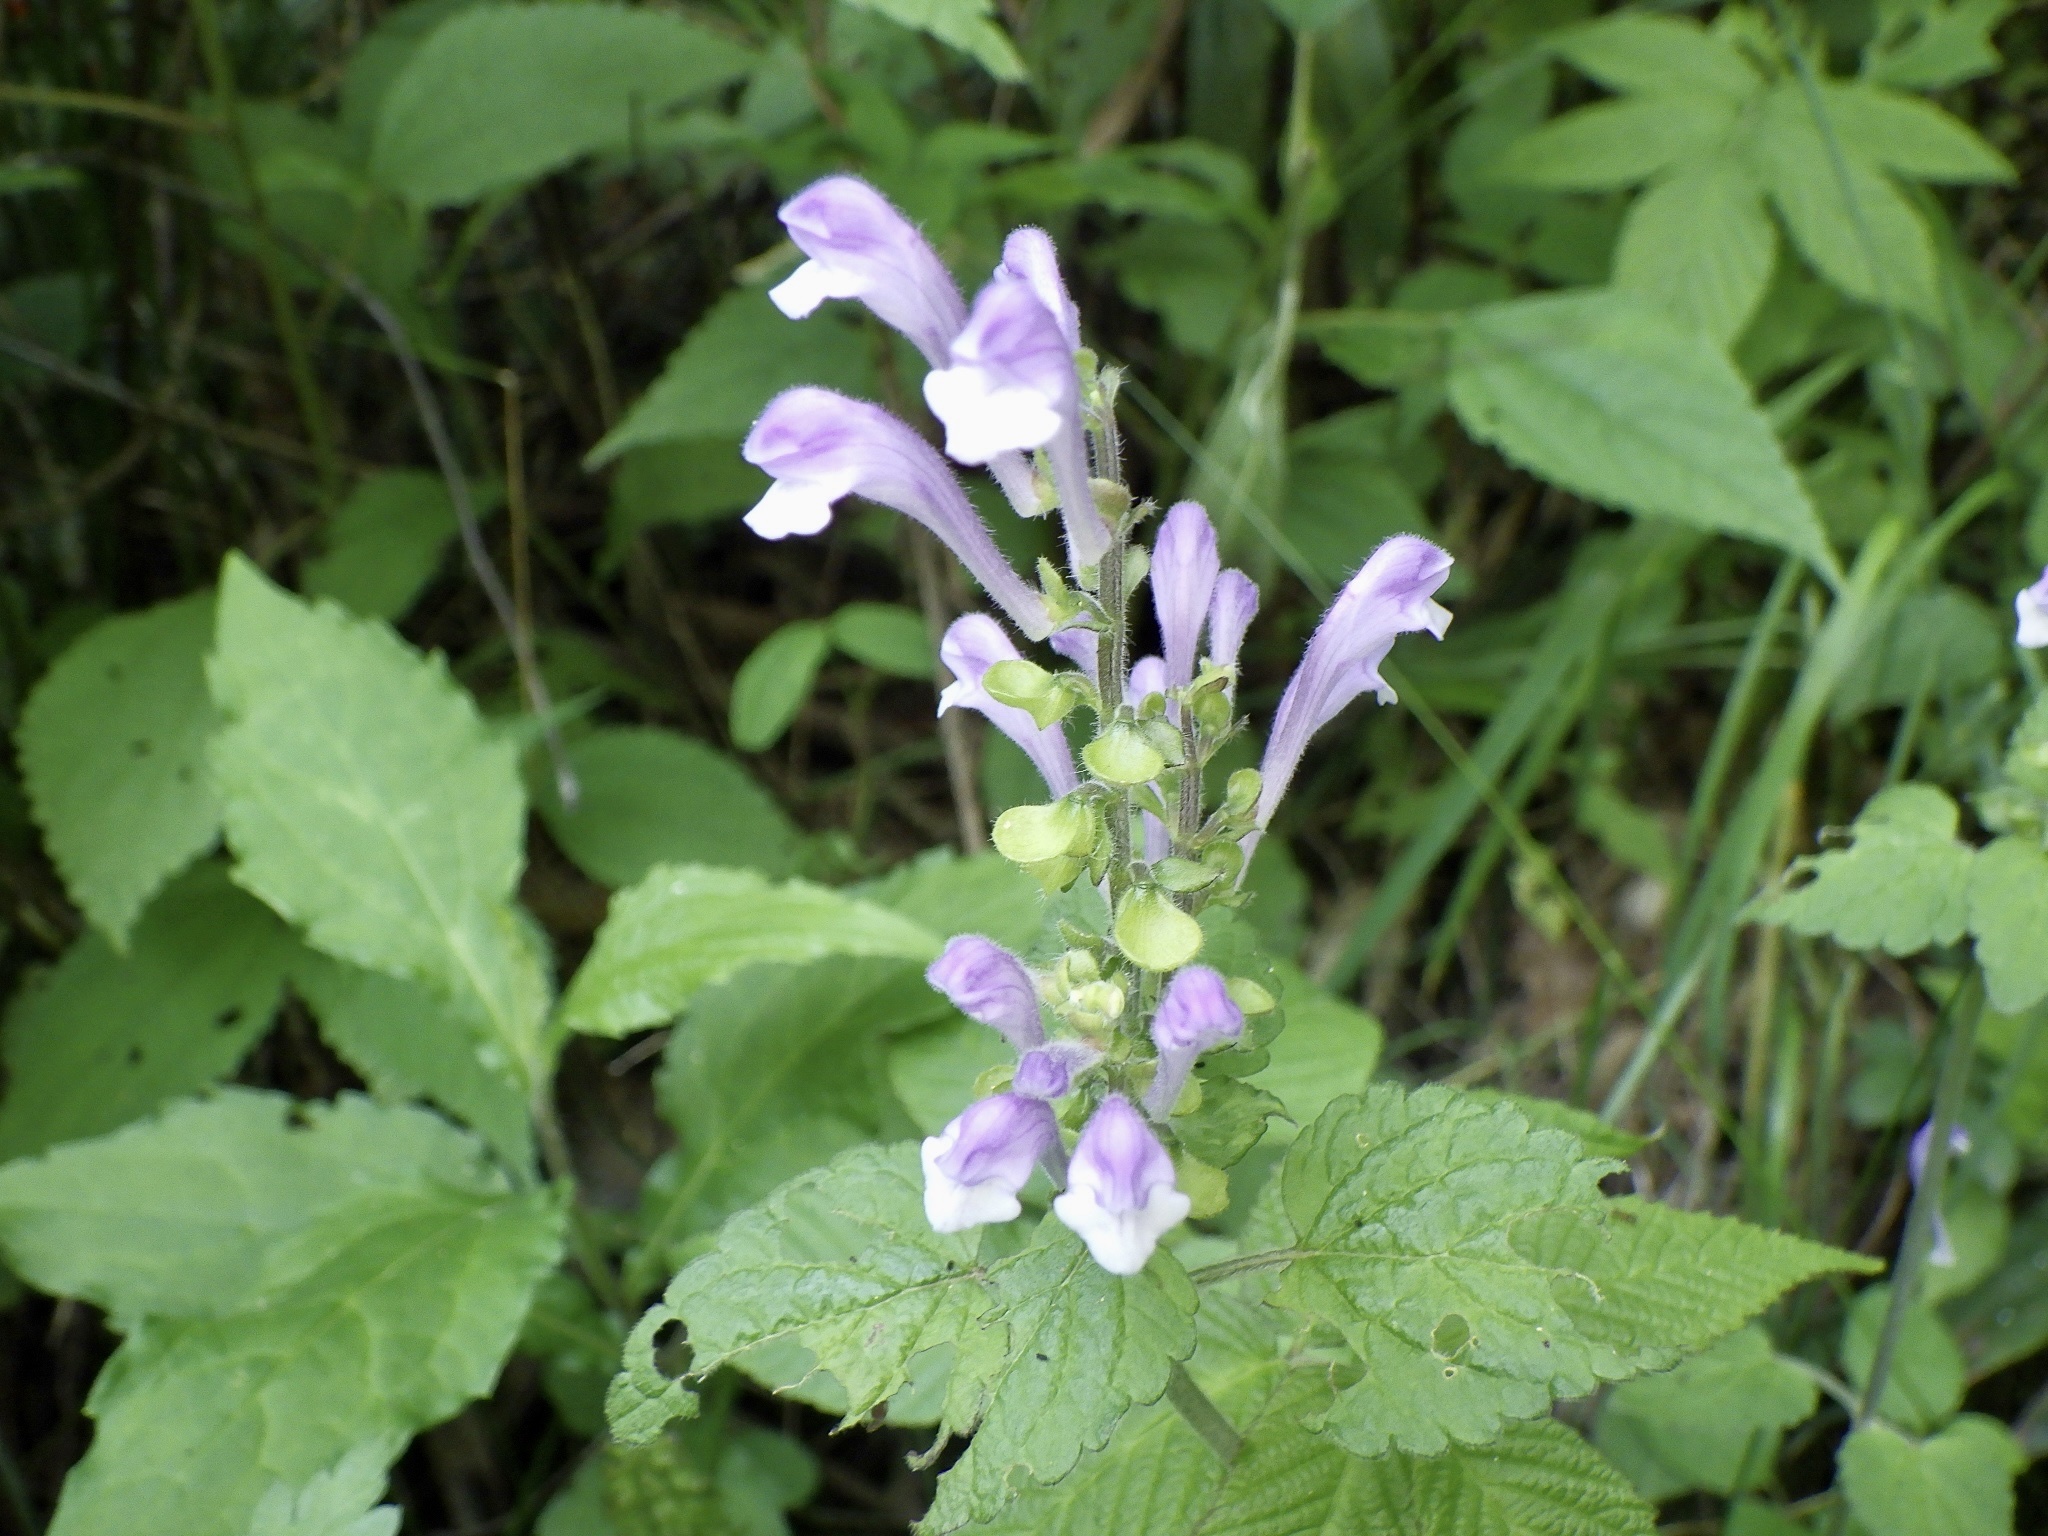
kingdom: Plantae
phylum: Tracheophyta
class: Magnoliopsida
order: Lamiales
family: Lamiaceae
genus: Scutellaria
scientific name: Scutellaria muramatsui
